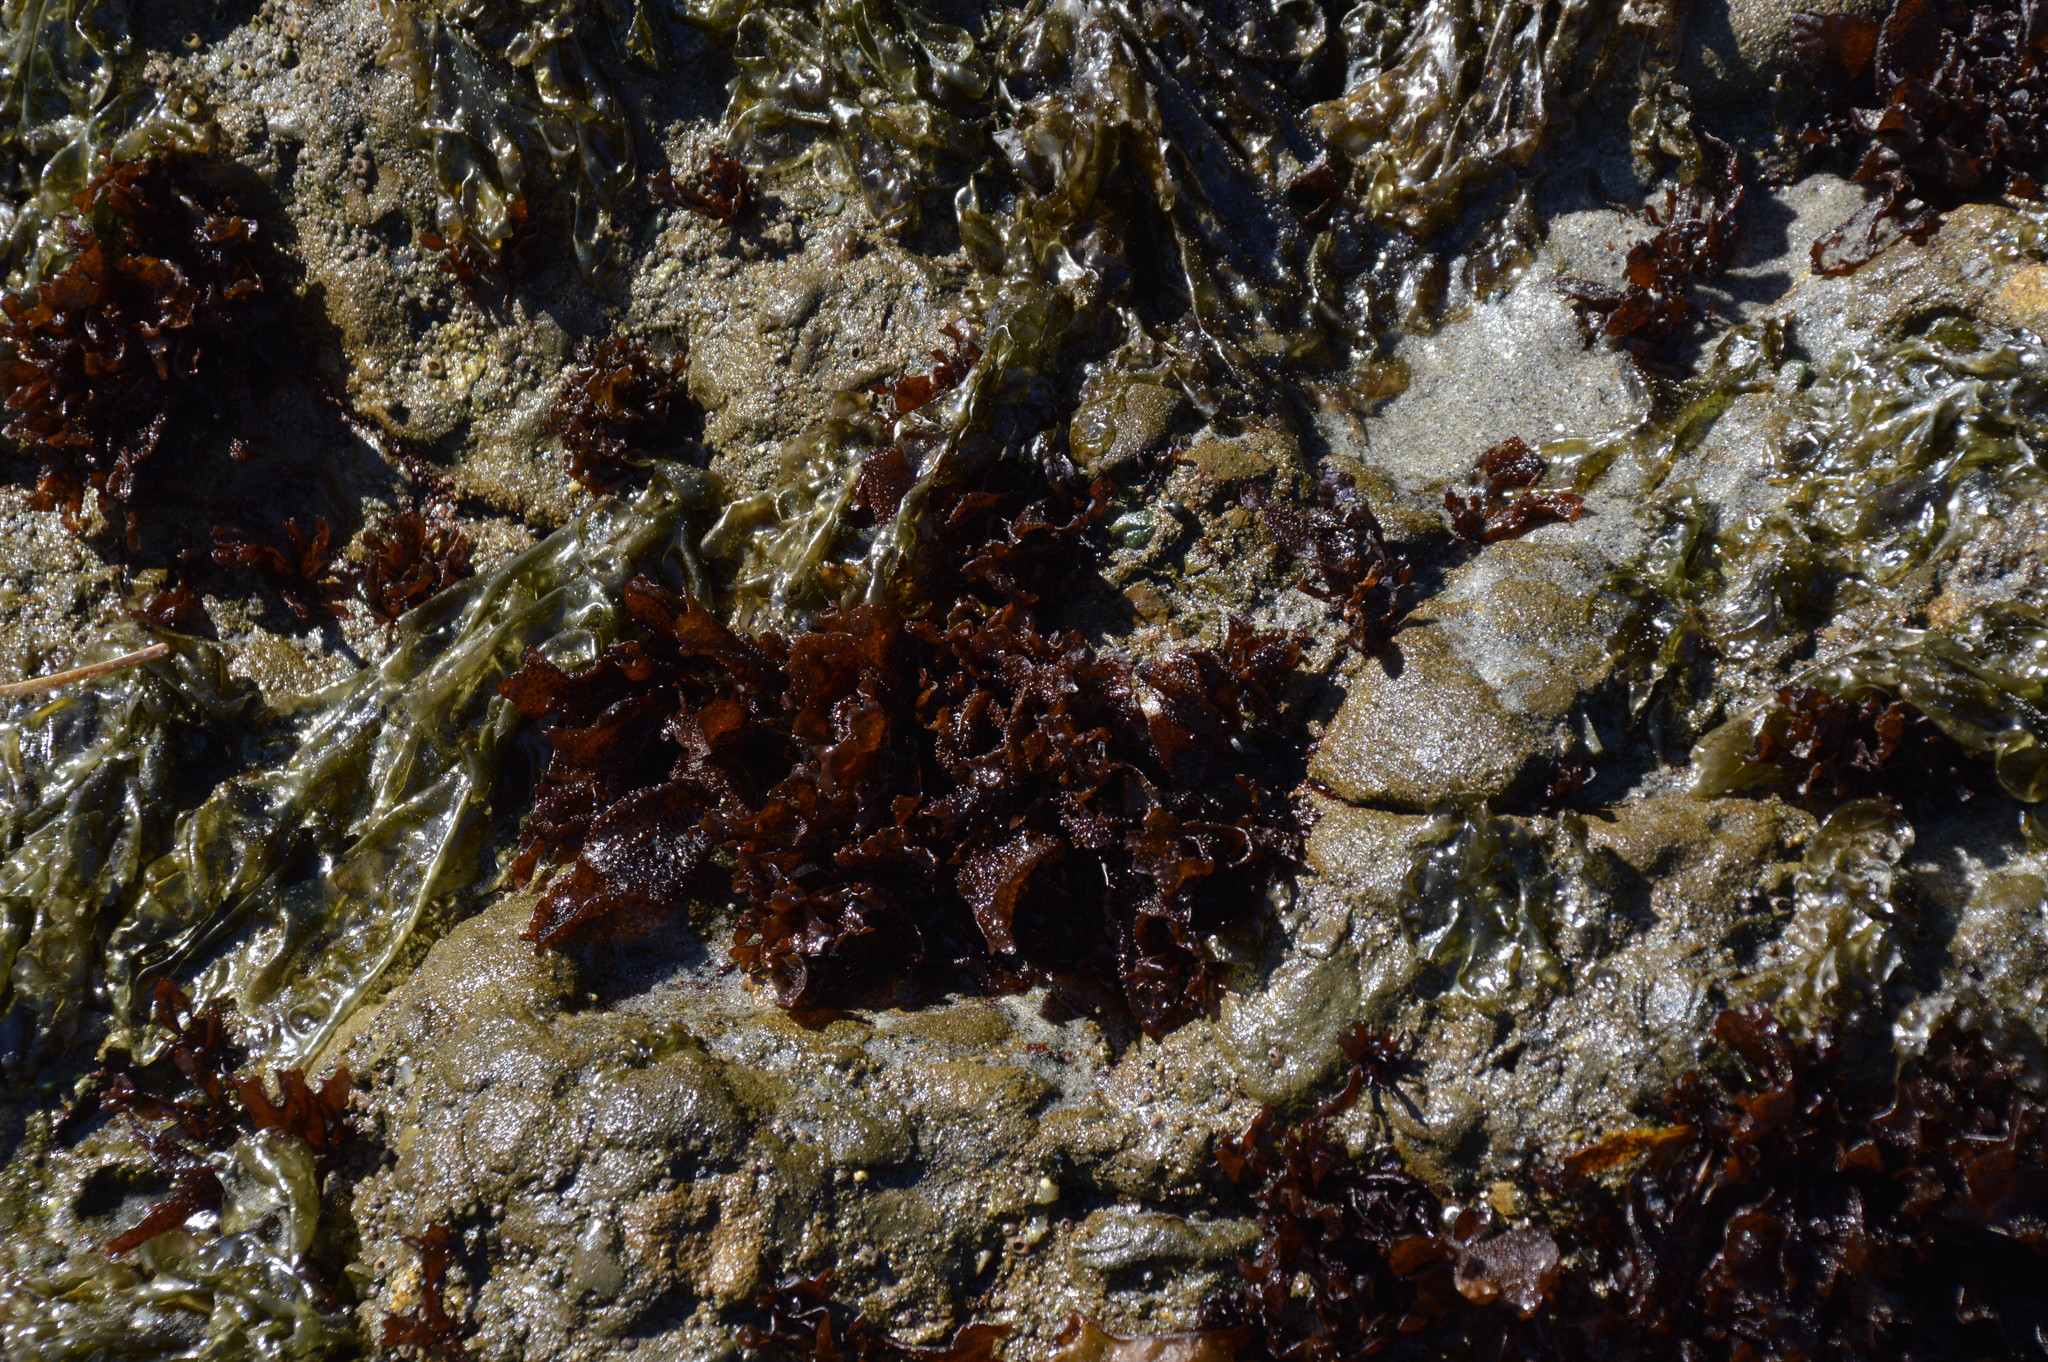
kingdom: Plantae
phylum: Rhodophyta
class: Florideophyceae
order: Gigartinales
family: Phyllophoraceae
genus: Mastocarpus
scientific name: Mastocarpus papillatus
